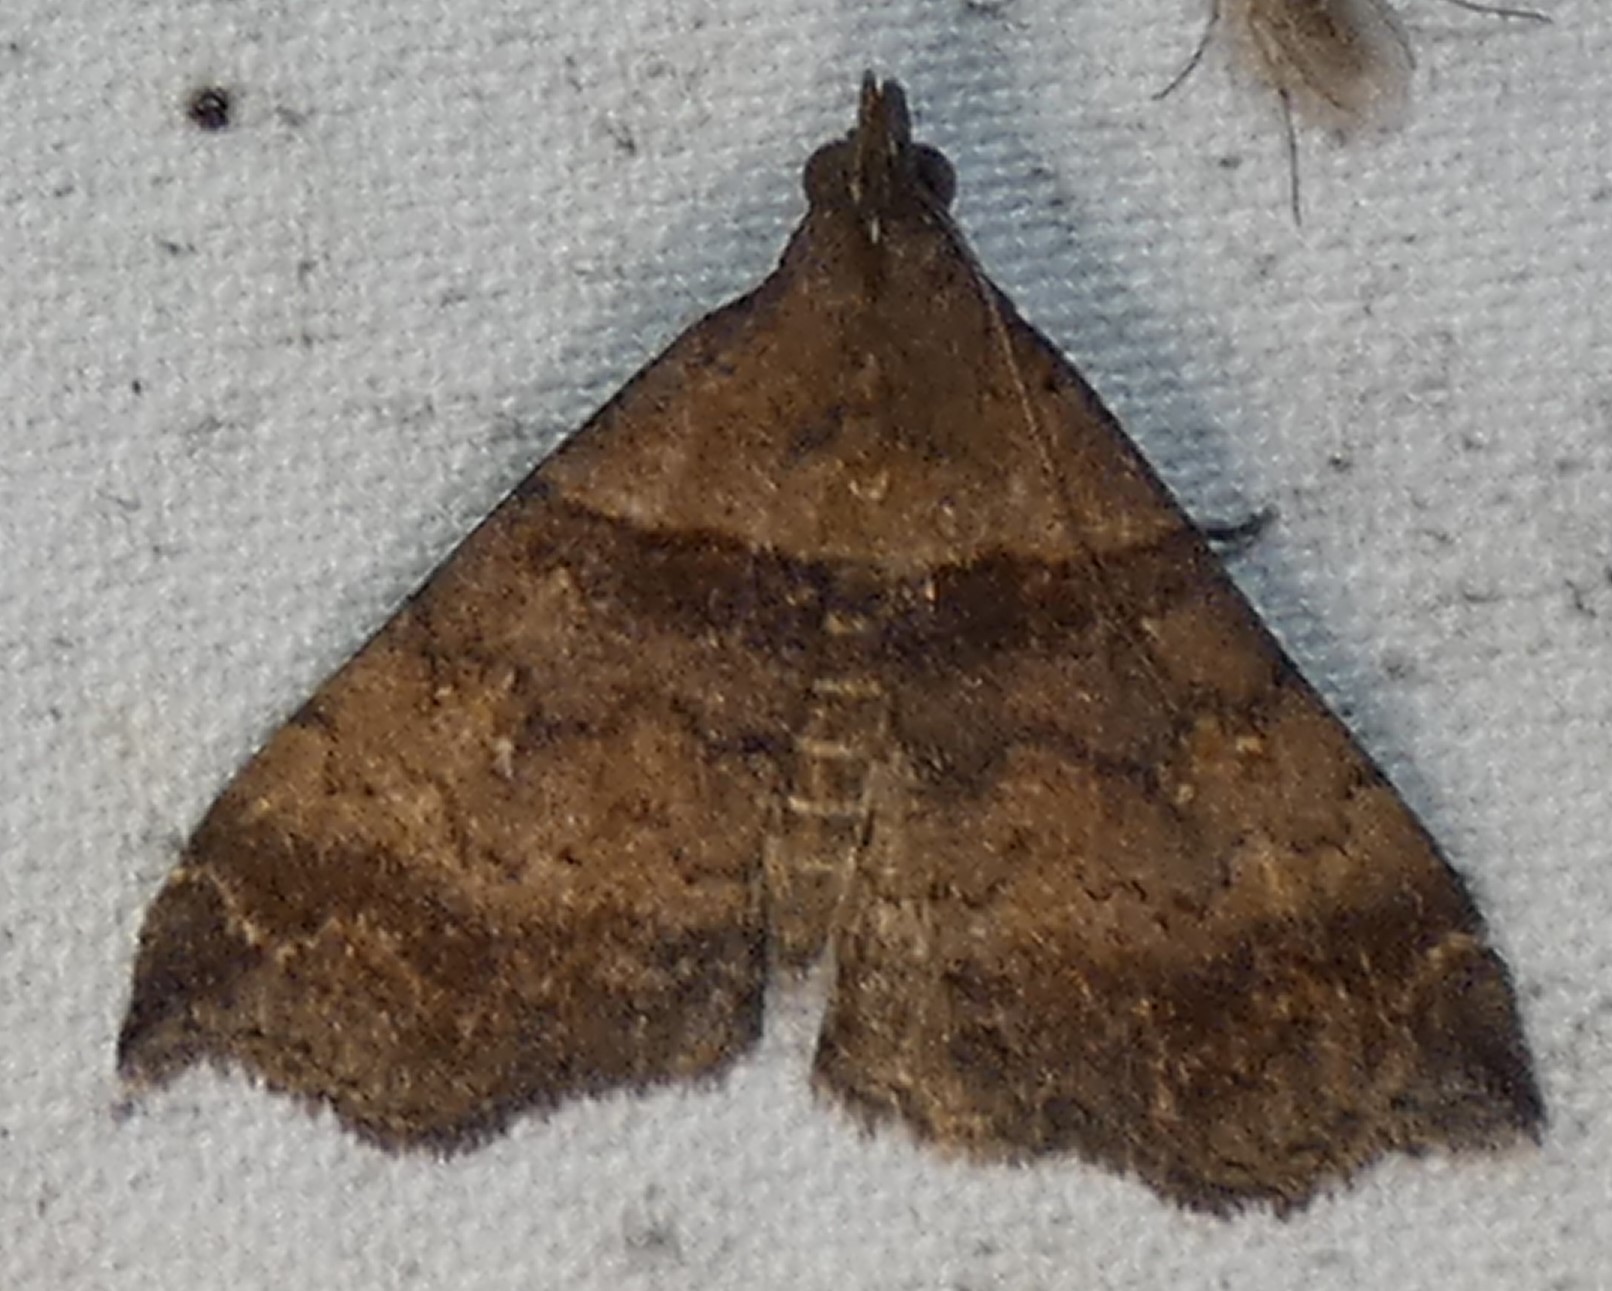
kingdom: Animalia
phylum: Arthropoda
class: Insecta
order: Lepidoptera
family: Erebidae
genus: Lascoria
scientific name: Lascoria ambigualis
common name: Ambiguous moth
